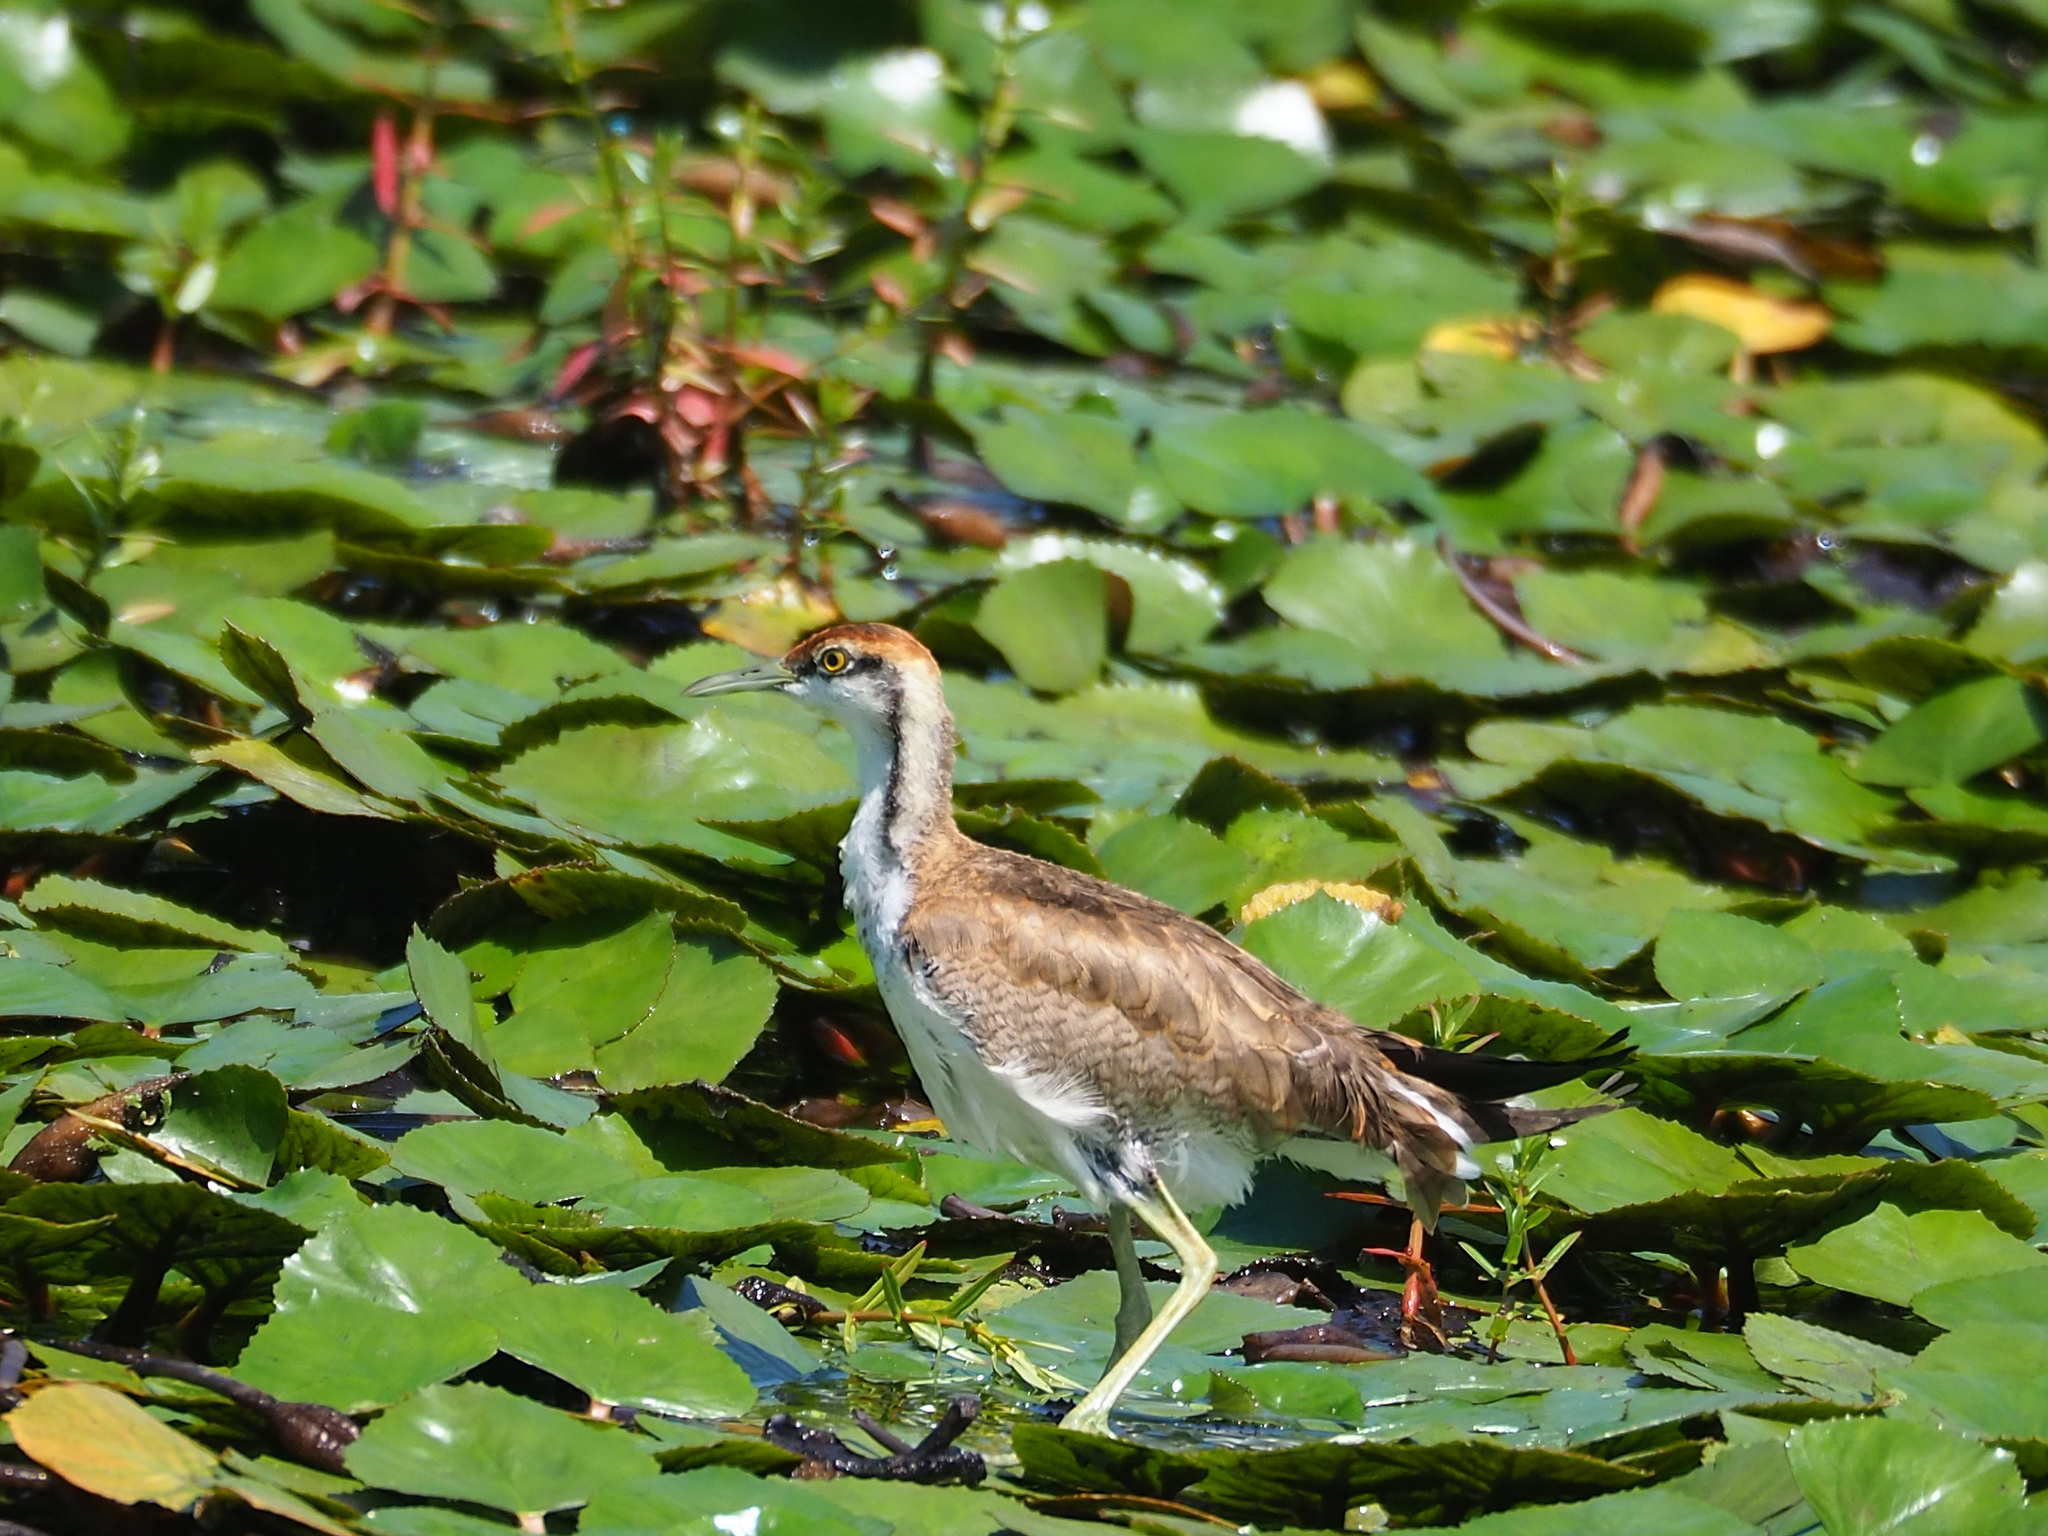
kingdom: Animalia
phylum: Chordata
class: Aves
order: Charadriiformes
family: Jacanidae
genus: Hydrophasianus
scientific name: Hydrophasianus chirurgus
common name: Pheasant-tailed jacana
